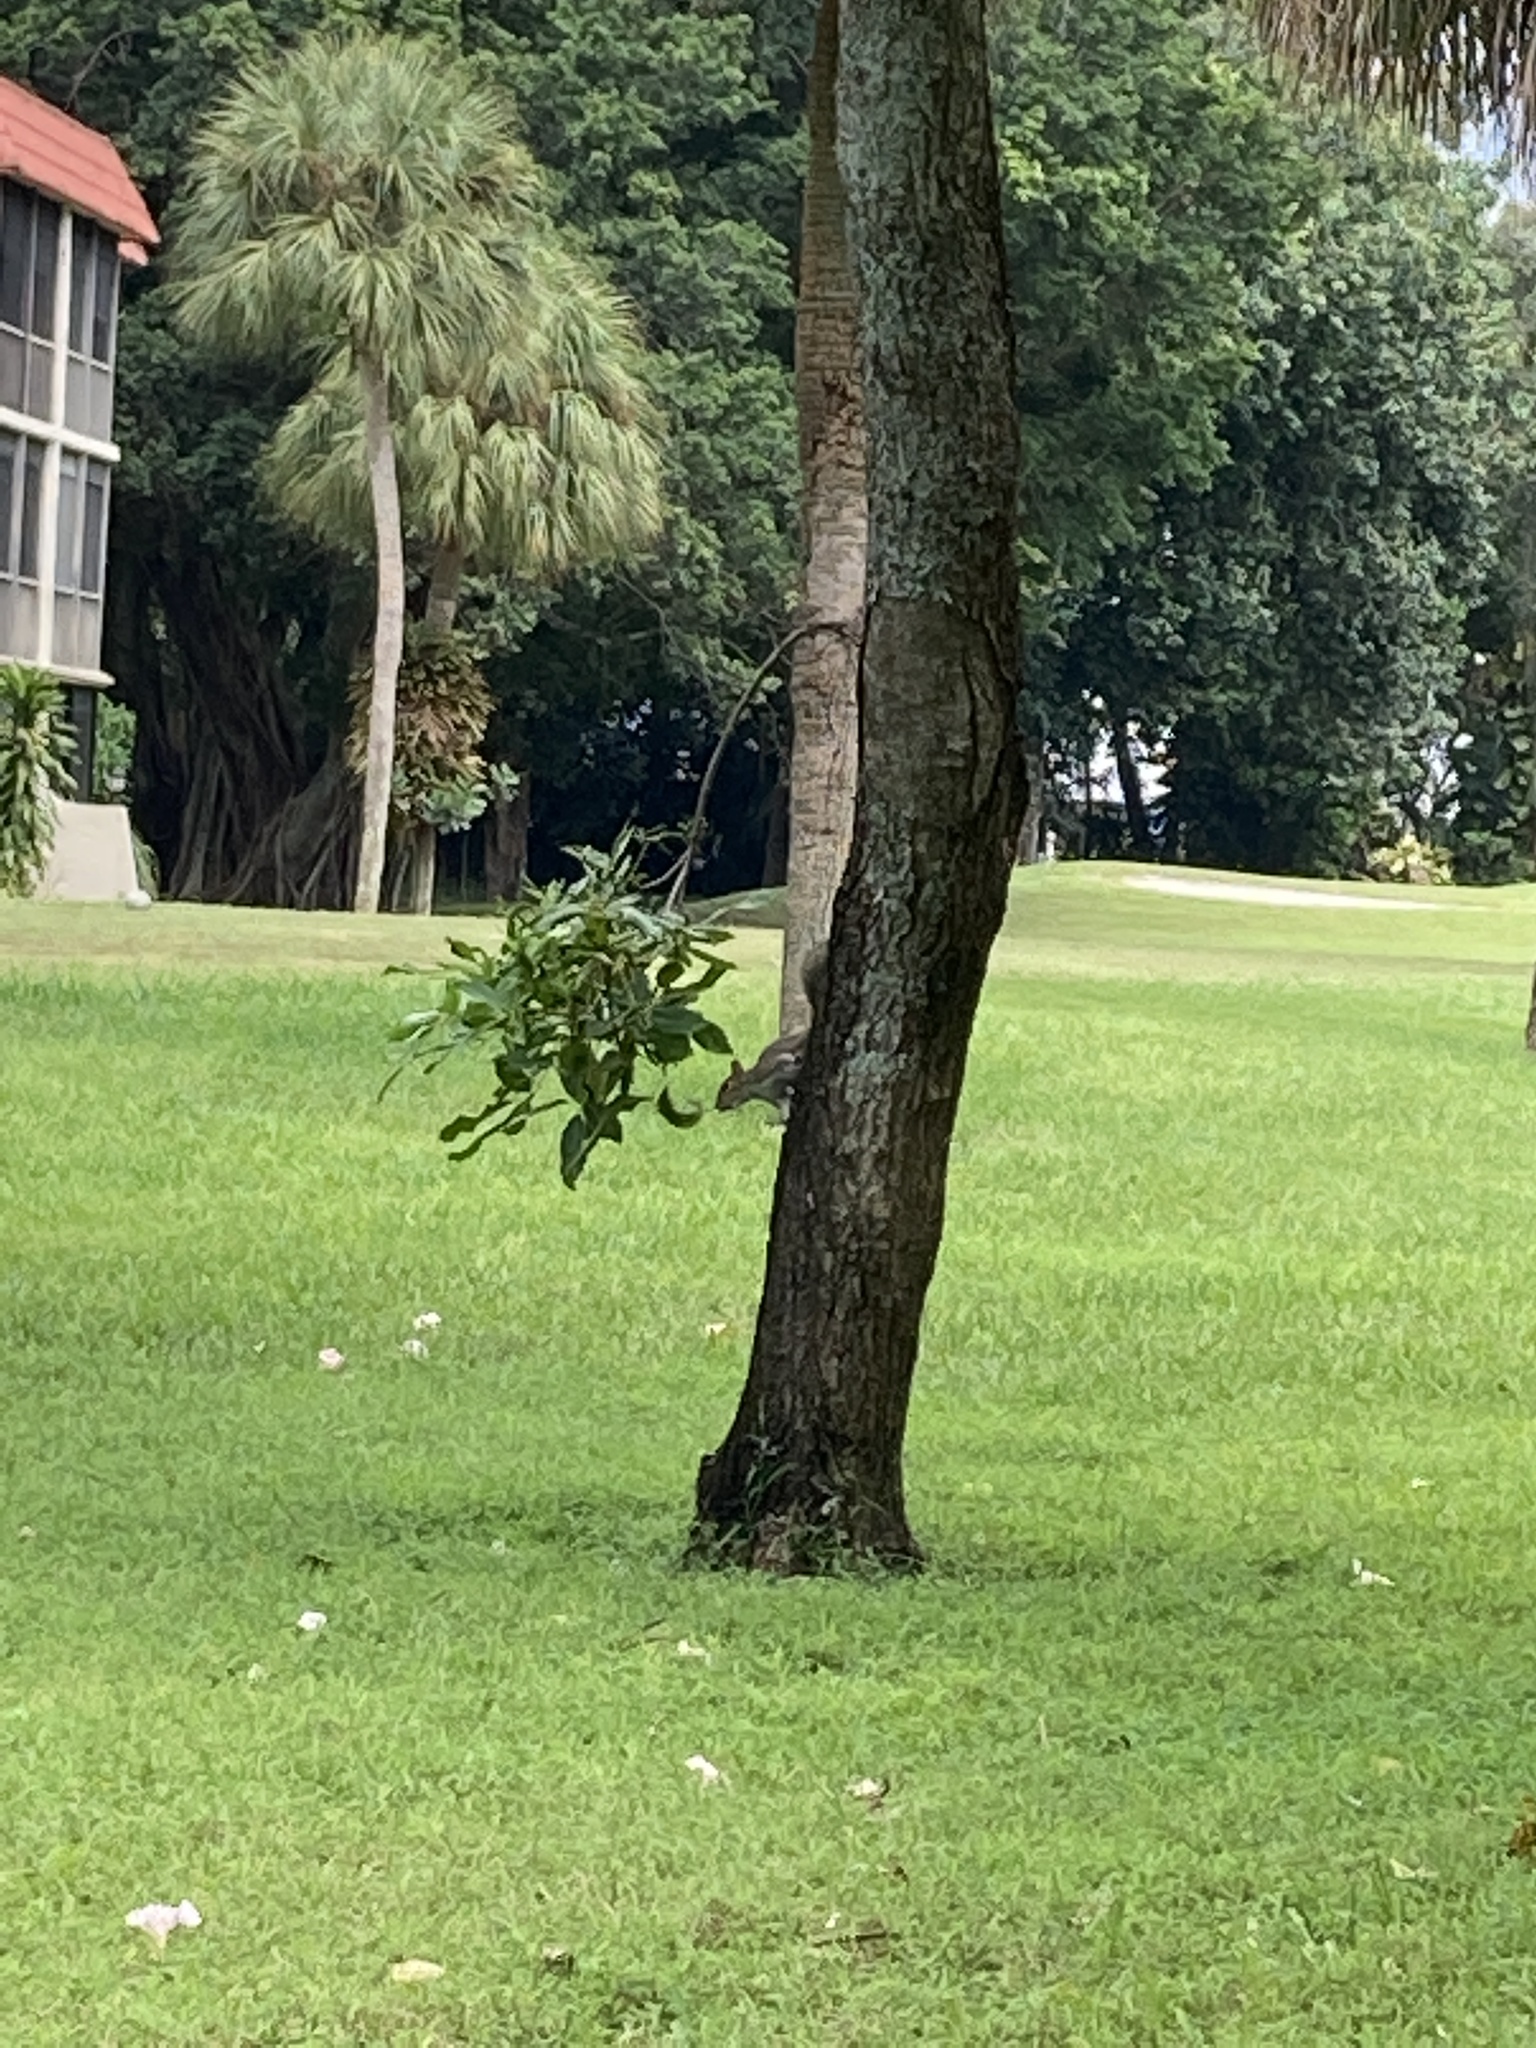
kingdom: Animalia
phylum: Chordata
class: Mammalia
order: Rodentia
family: Sciuridae
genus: Sciurus
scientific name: Sciurus carolinensis
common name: Eastern gray squirrel
